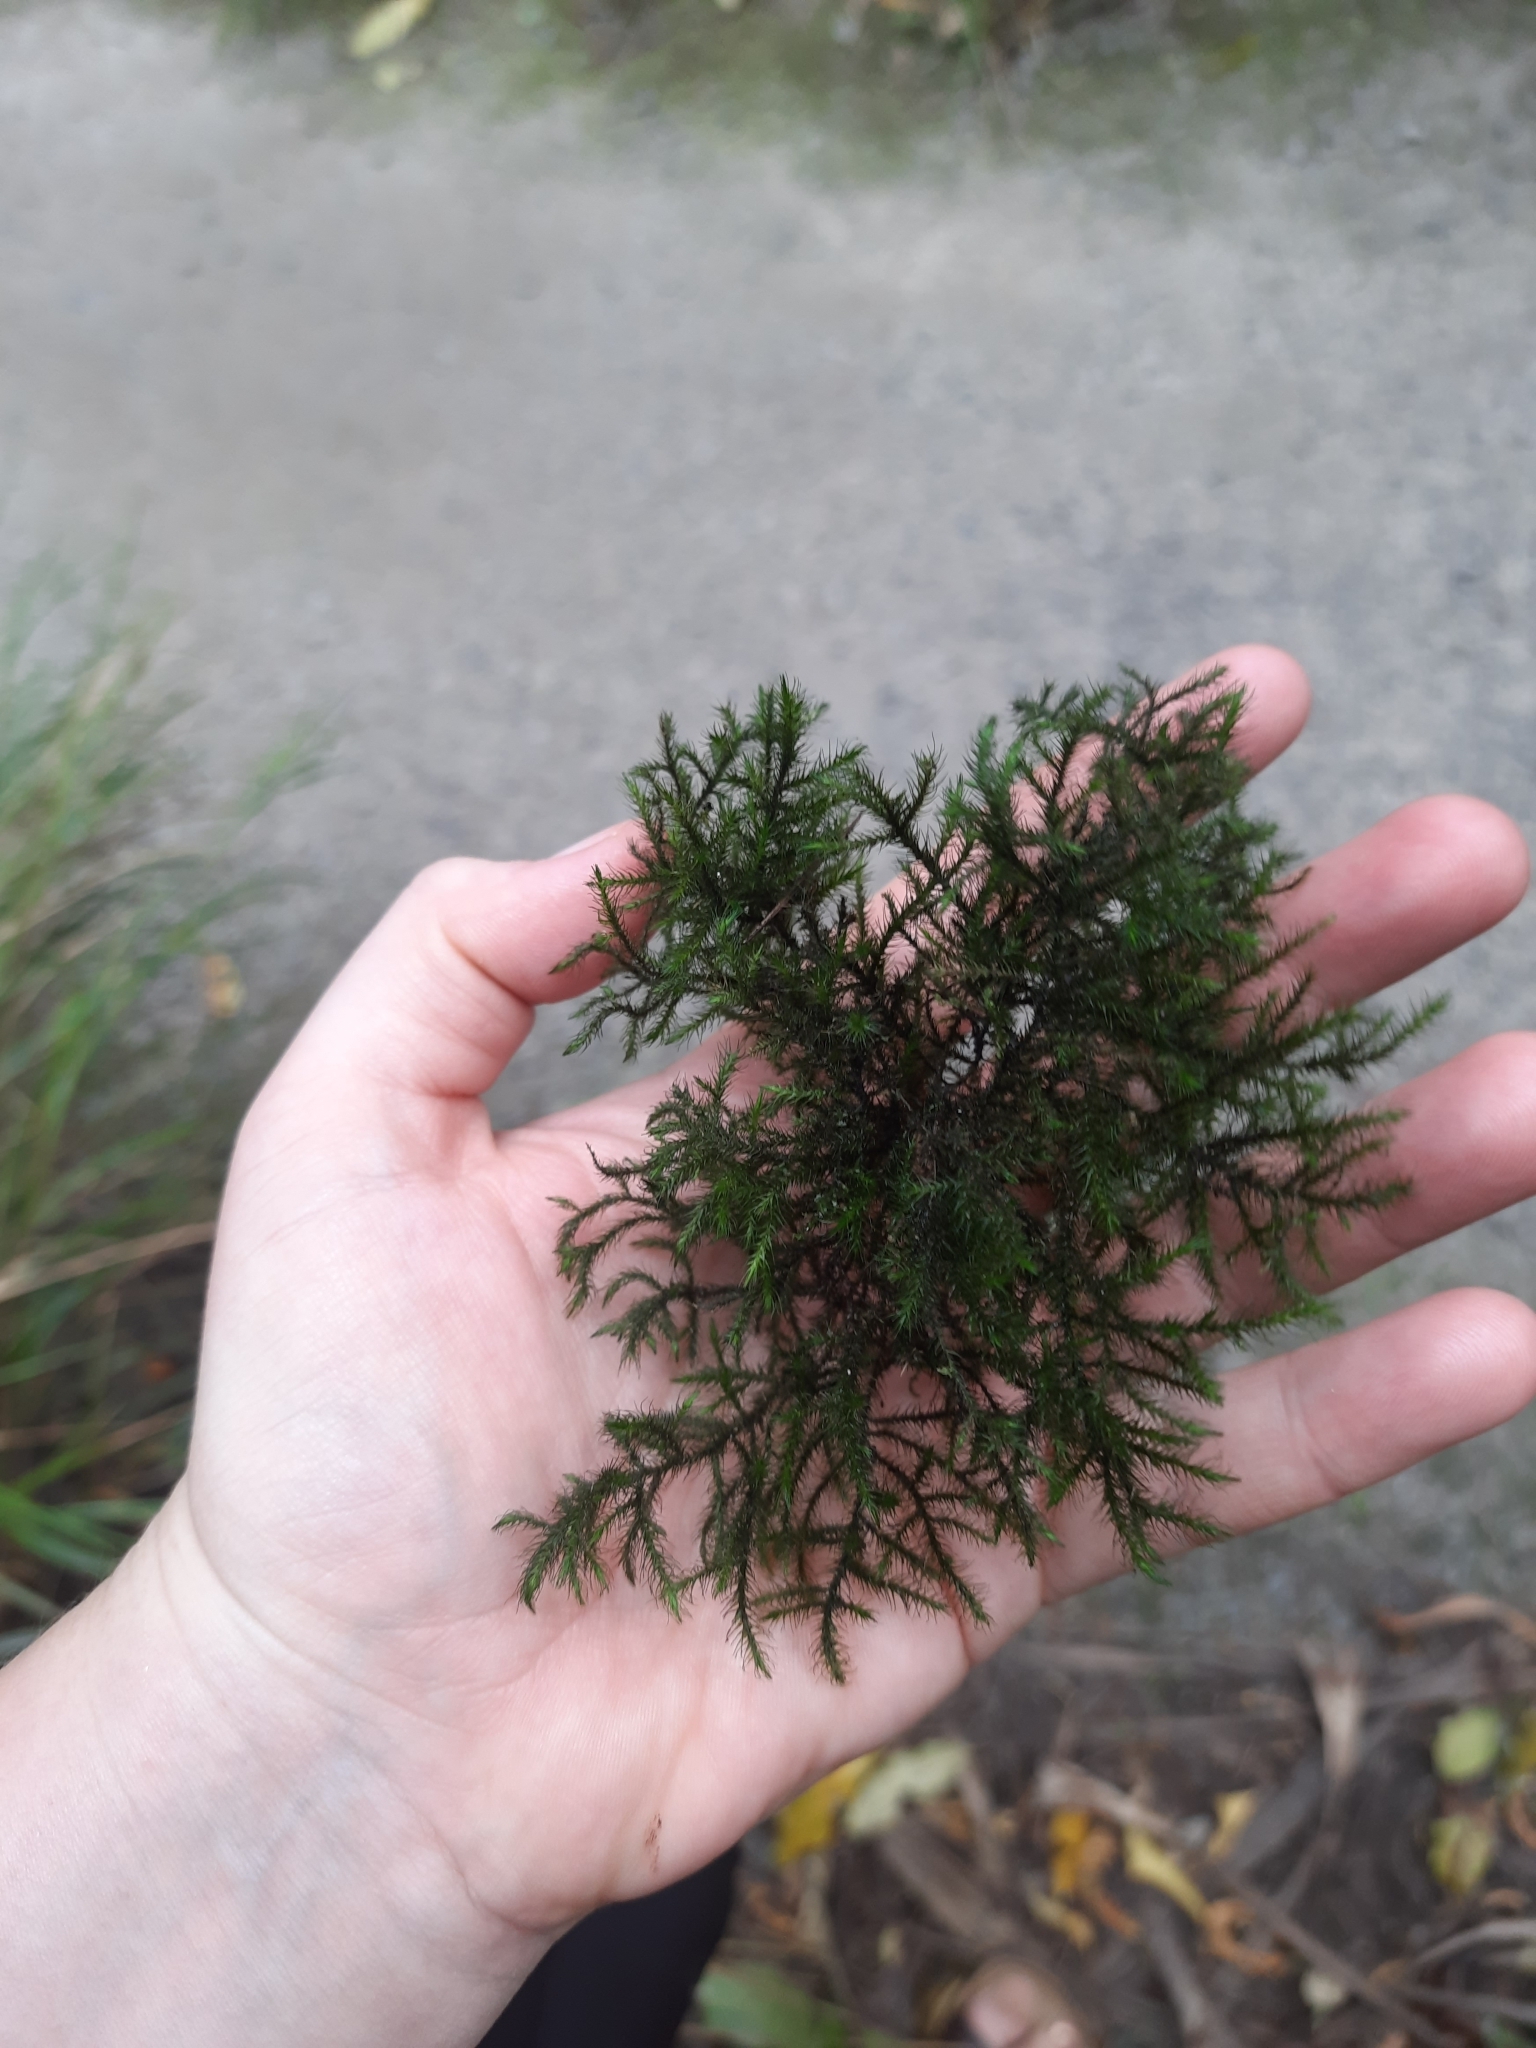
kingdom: Plantae
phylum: Bryophyta
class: Bryopsida
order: Hypnales
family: Neckeraceae
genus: Echinodiopsis
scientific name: Echinodiopsis hispida
